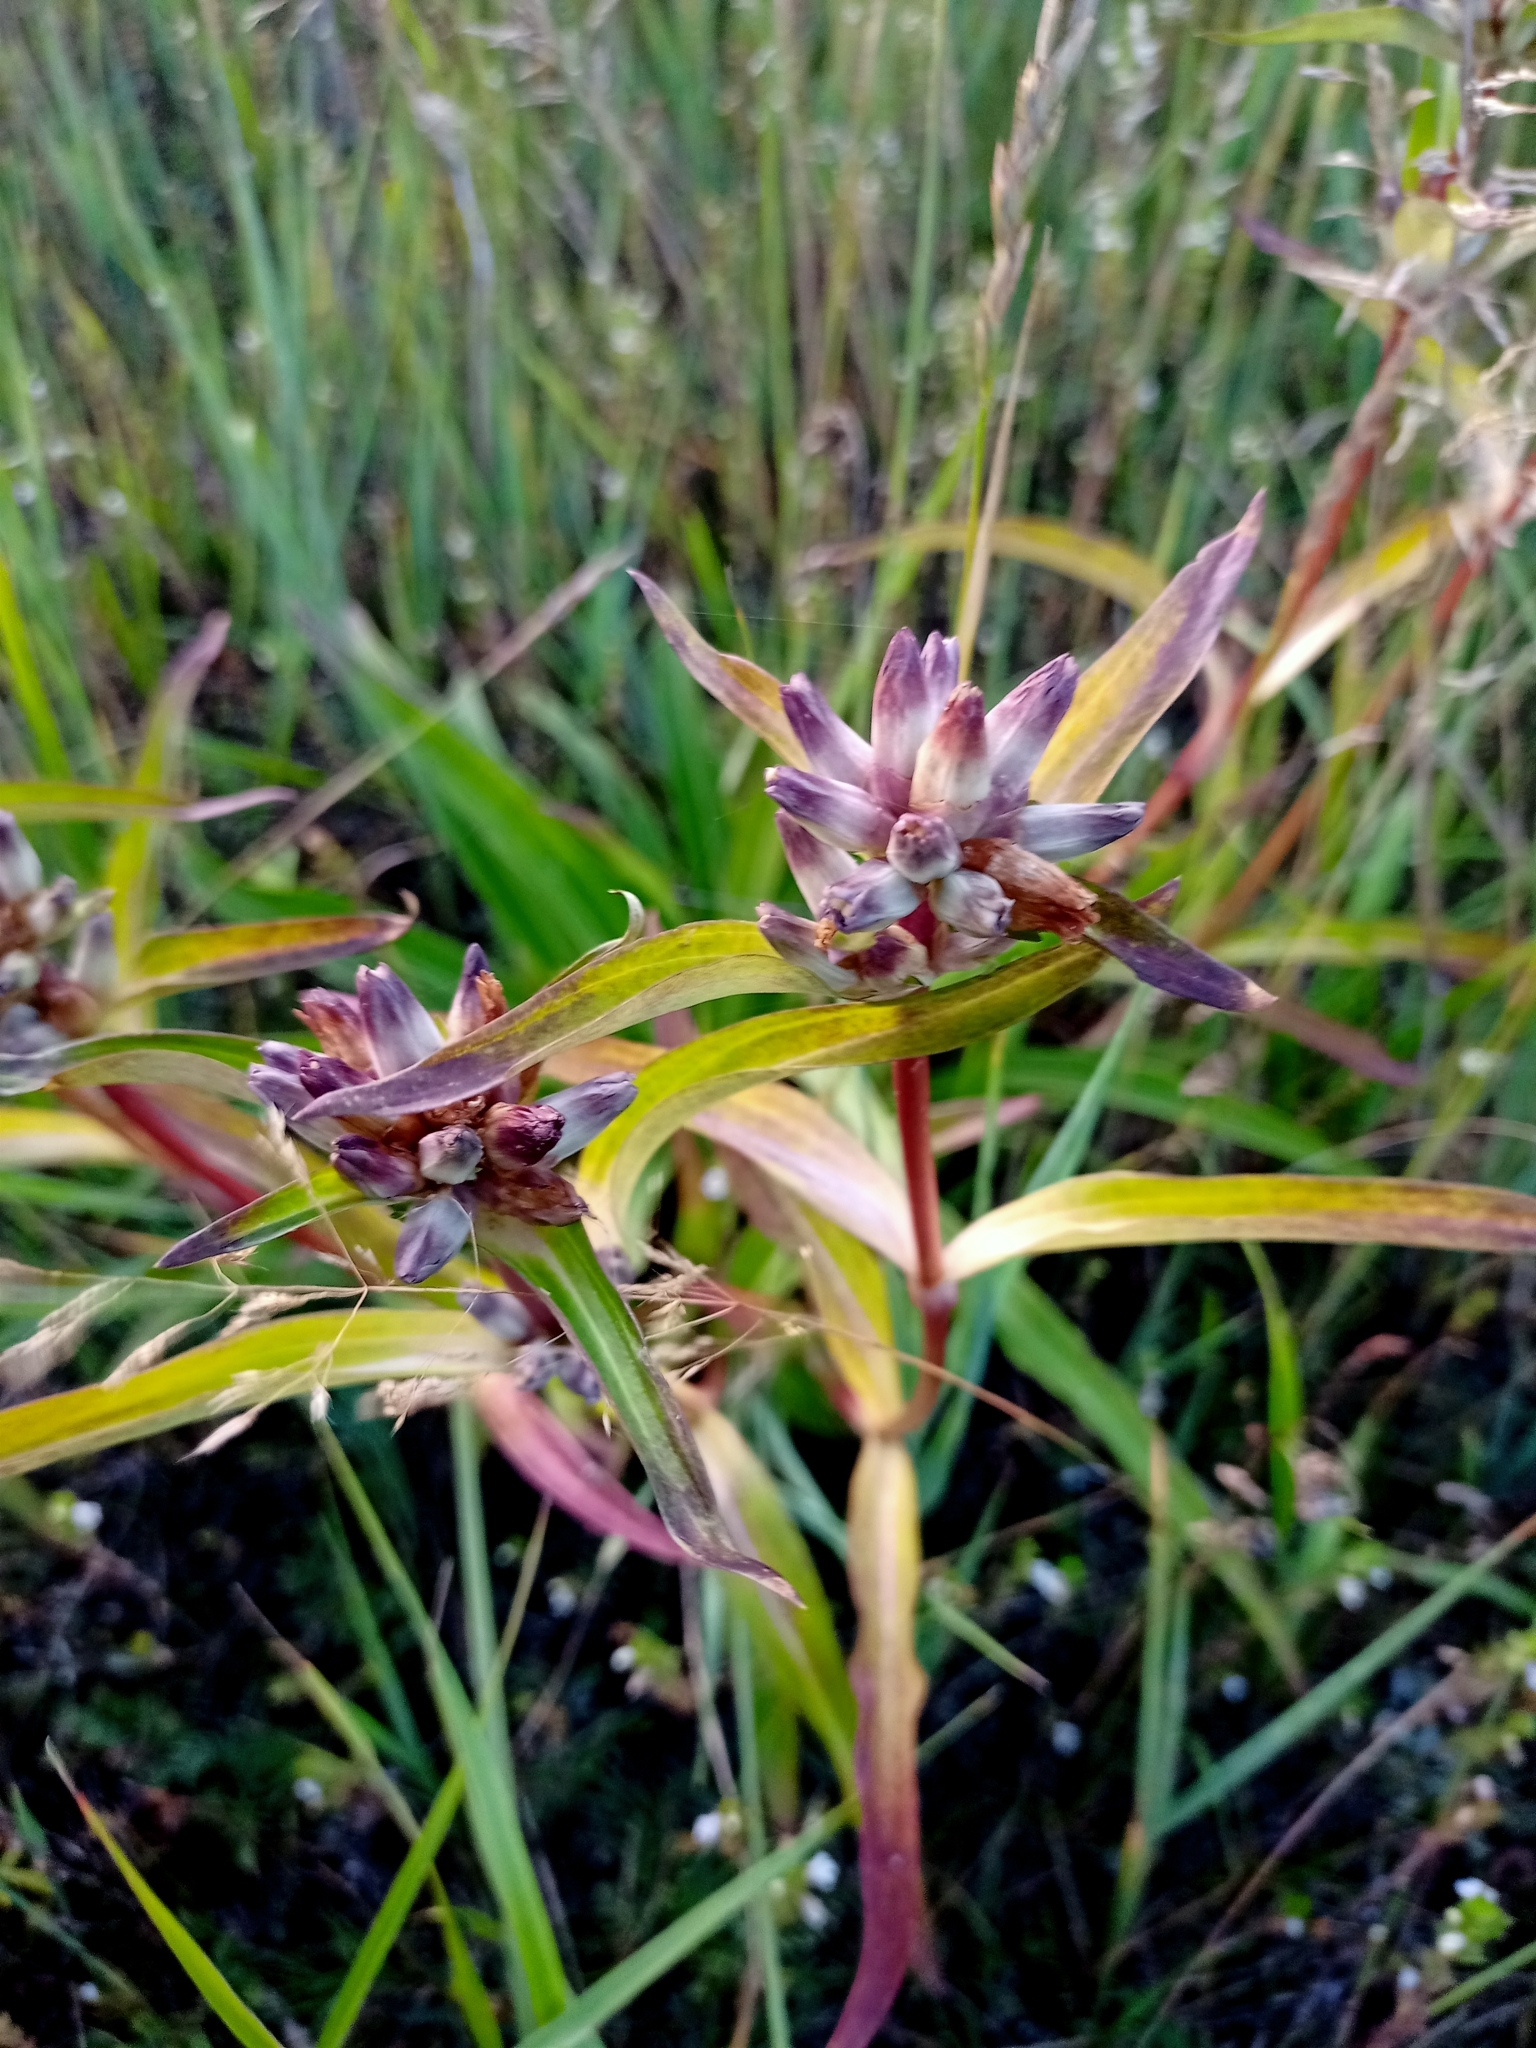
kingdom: Plantae
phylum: Tracheophyta
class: Magnoliopsida
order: Gentianales
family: Gentianaceae
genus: Gentiana
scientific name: Gentiana macrophylla
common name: Large-leaf gentian
